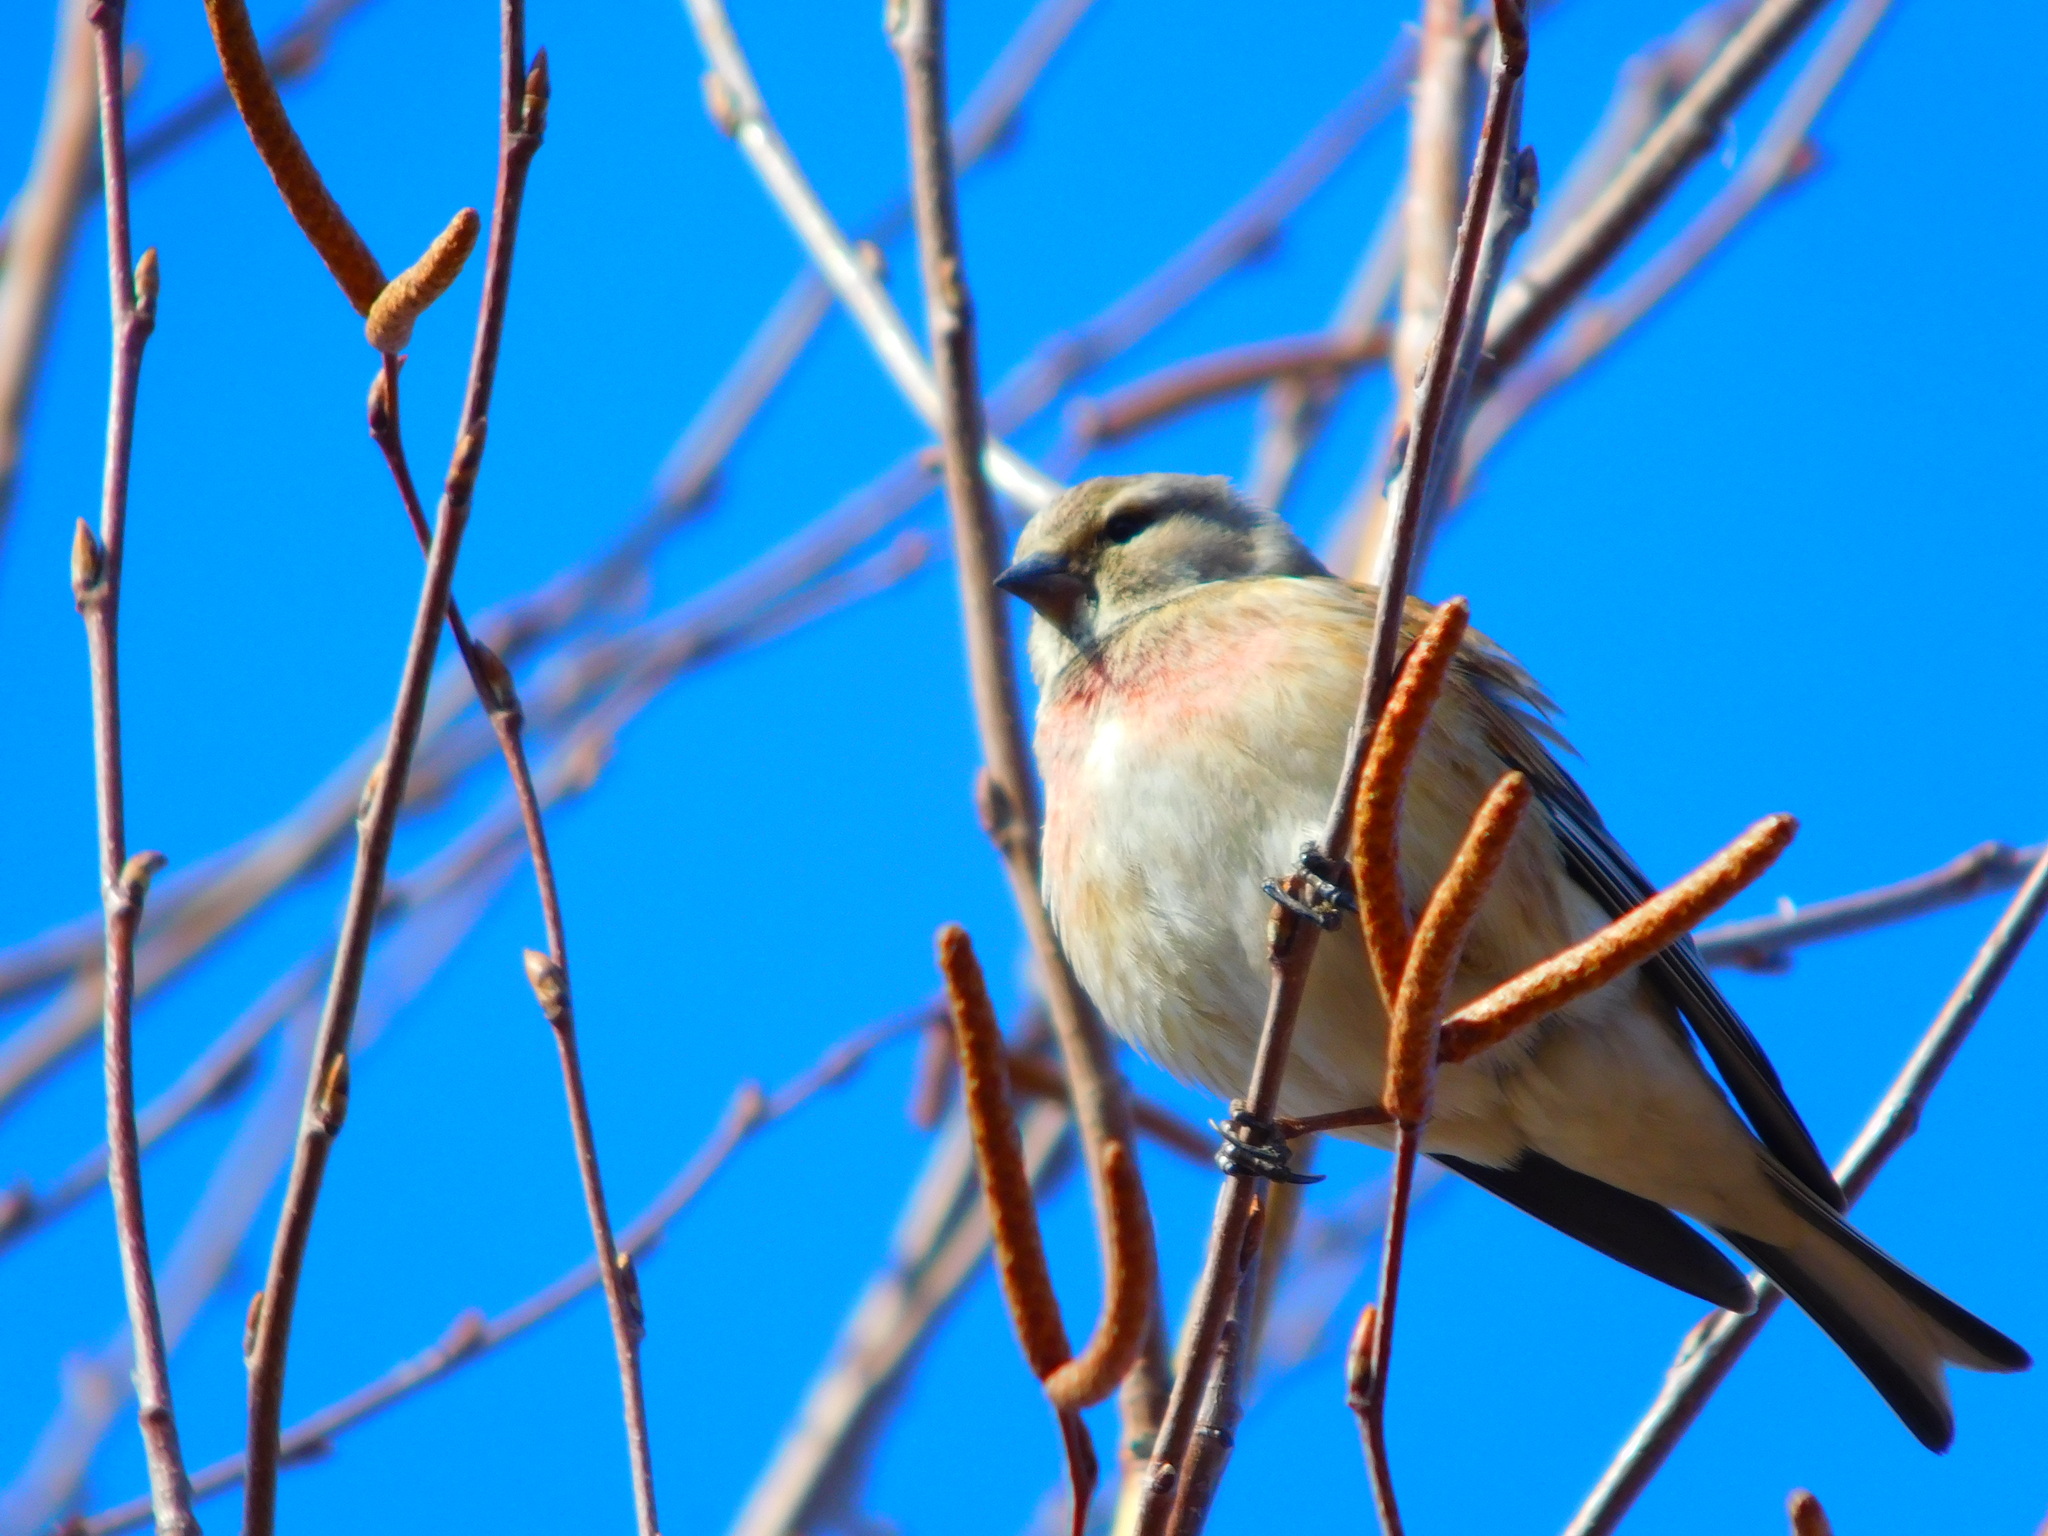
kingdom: Animalia
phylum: Chordata
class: Aves
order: Passeriformes
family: Fringillidae
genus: Linaria
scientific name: Linaria cannabina
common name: Common linnet
